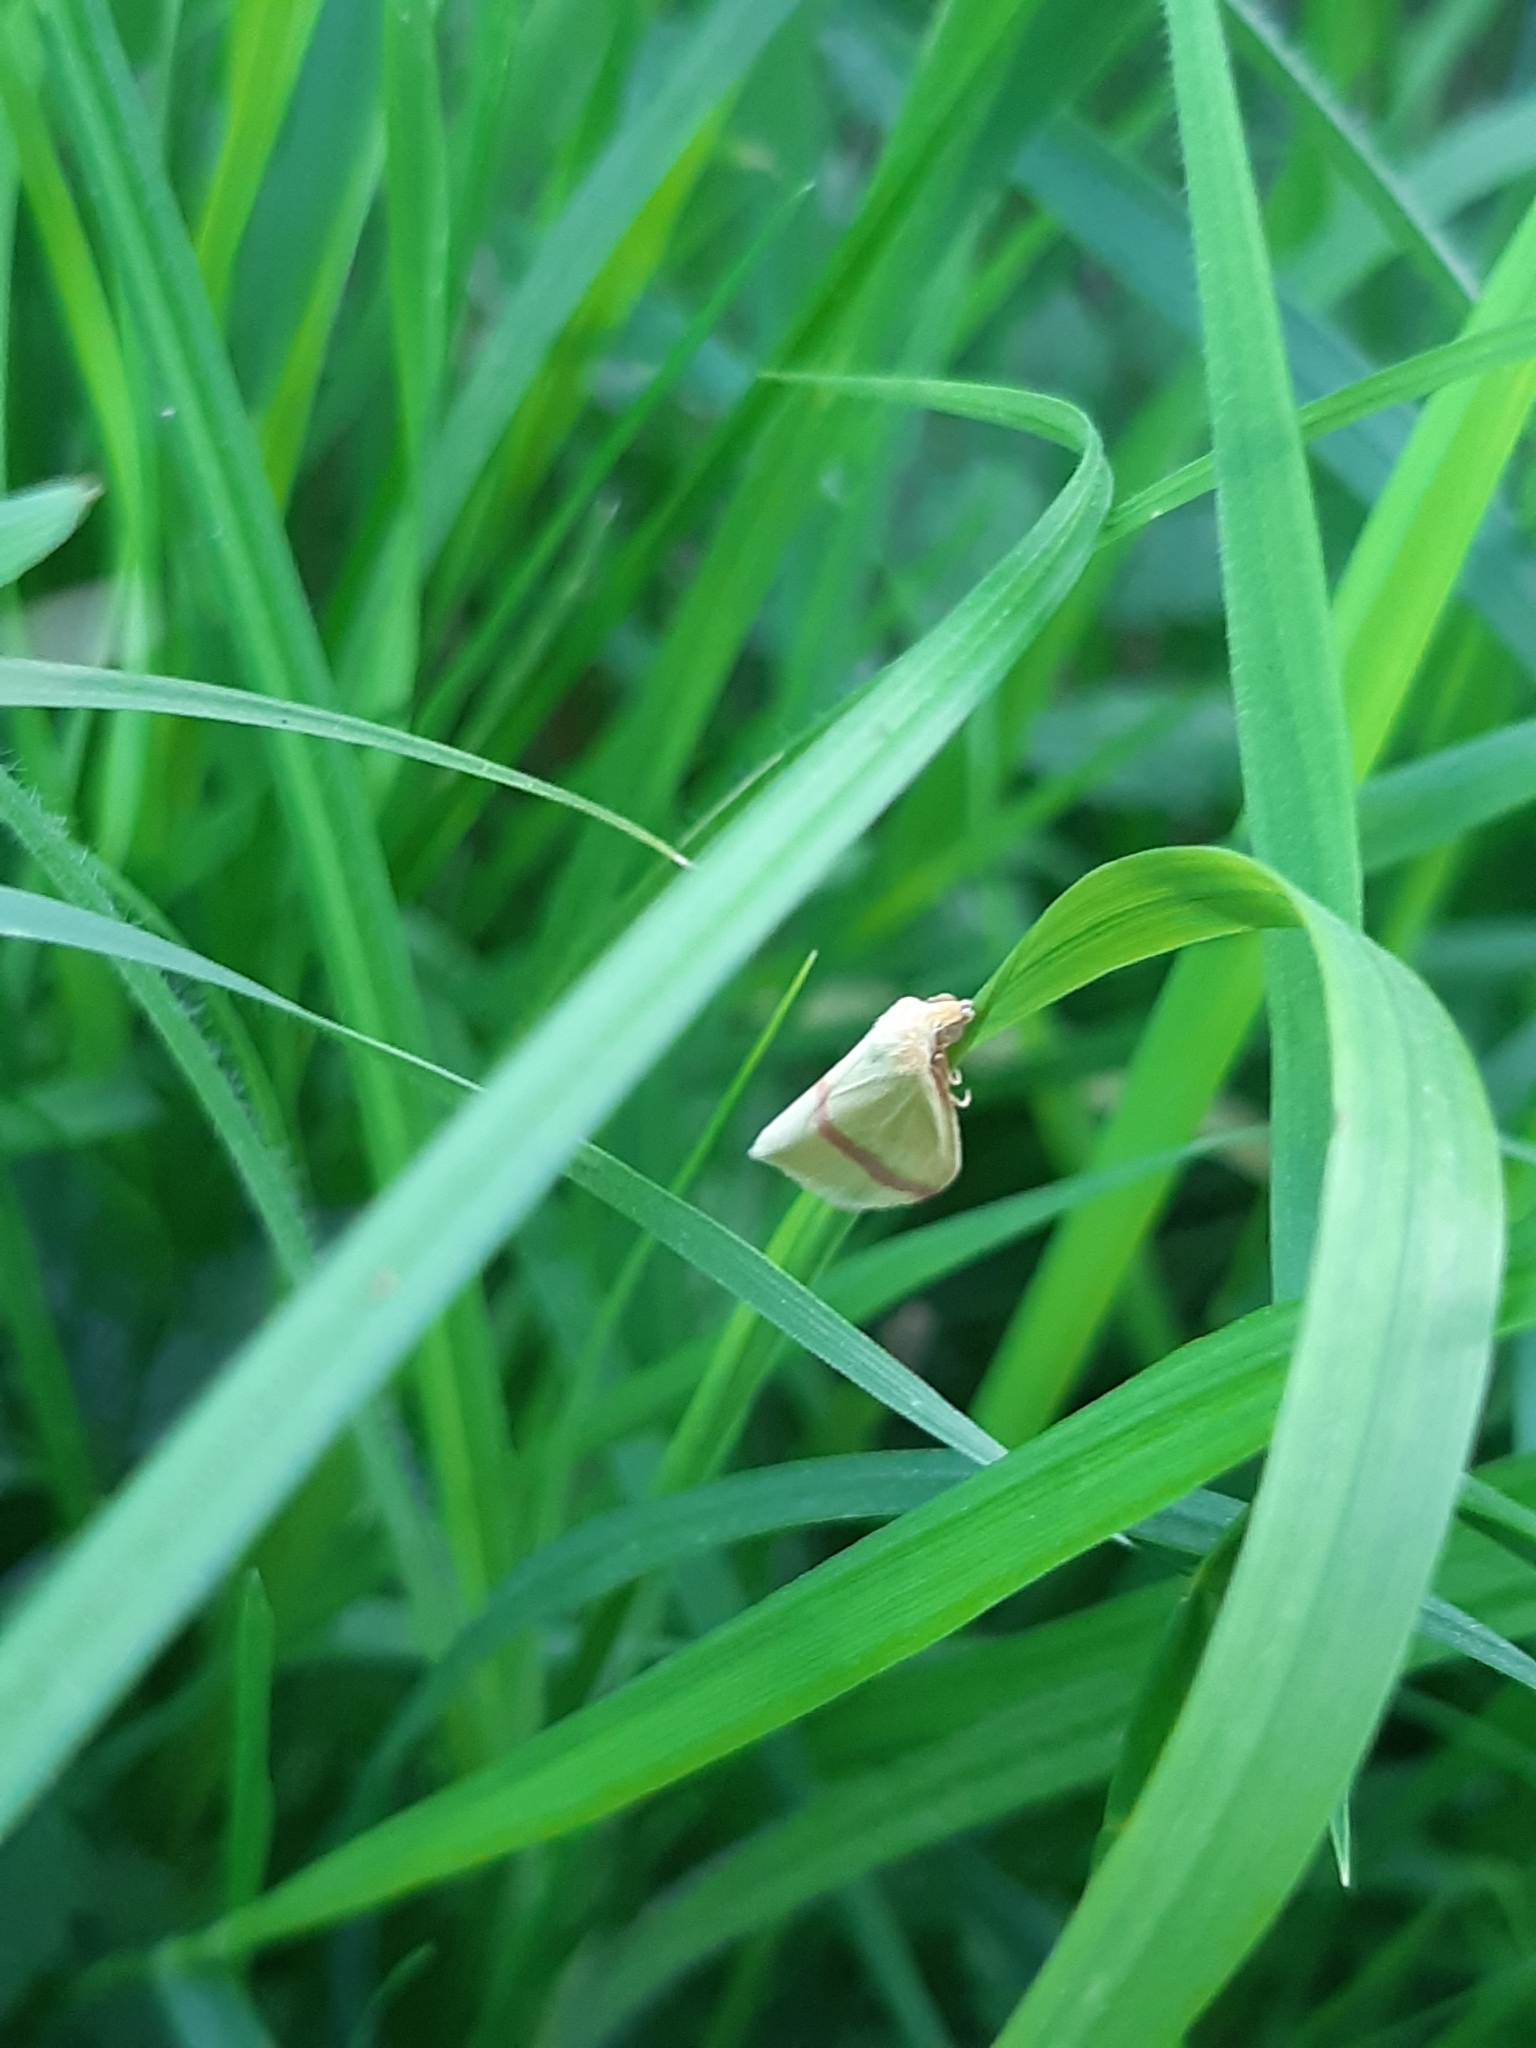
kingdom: Animalia
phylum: Arthropoda
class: Insecta
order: Lepidoptera
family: Geometridae
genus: Rhodometra
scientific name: Rhodometra sacraria
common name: Vestal
